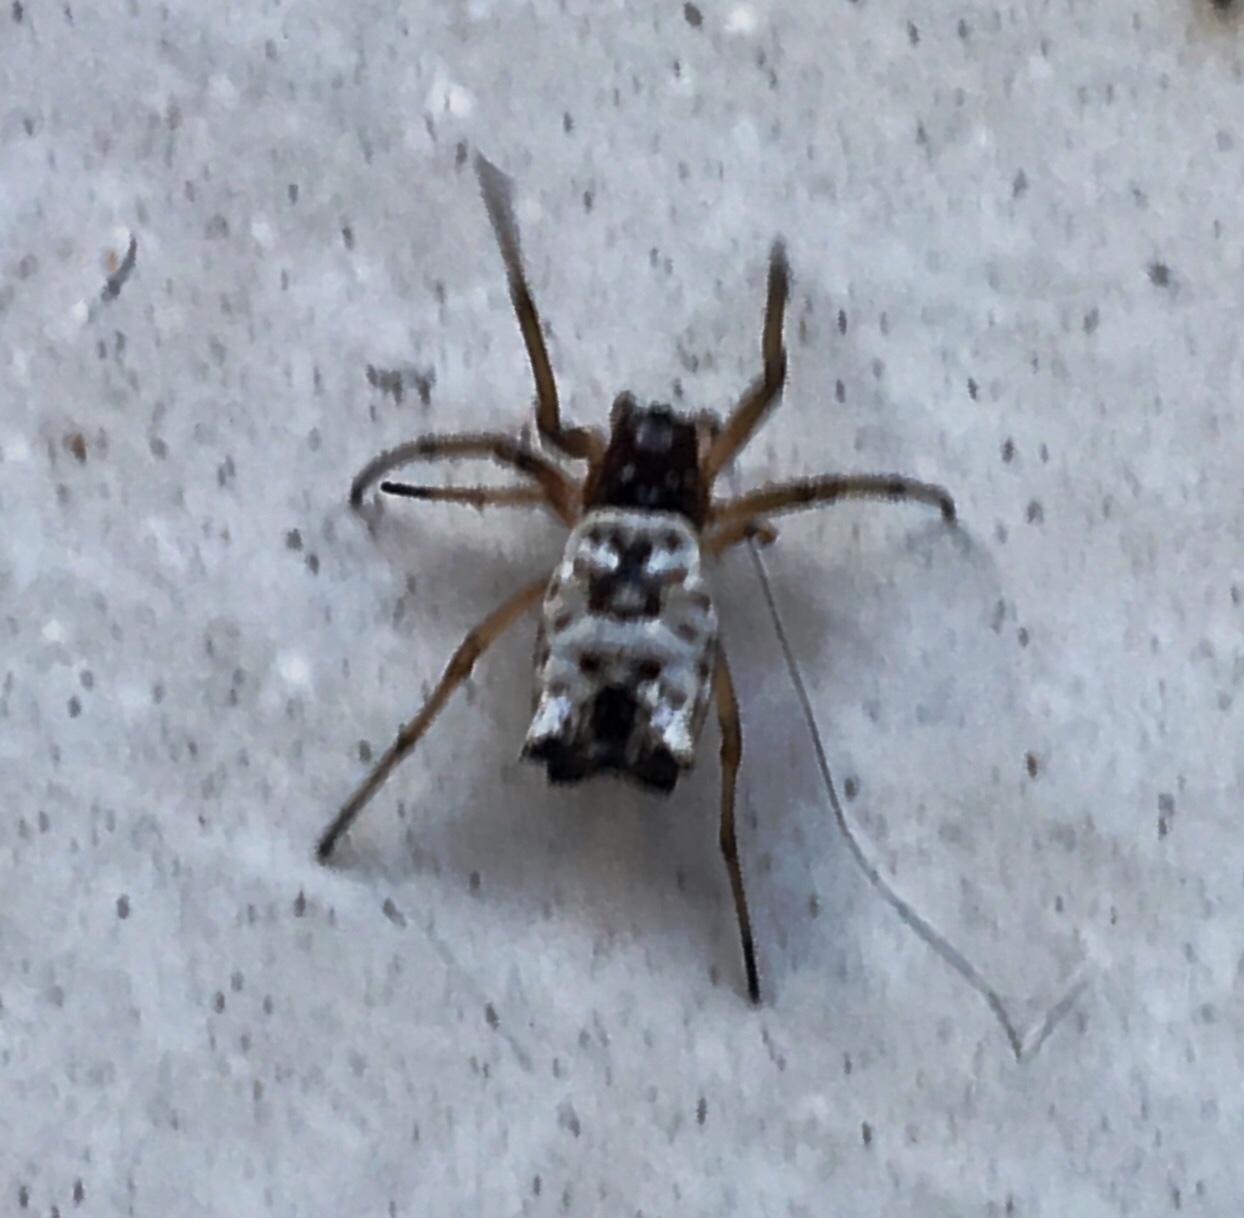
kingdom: Animalia
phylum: Arthropoda
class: Arachnida
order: Araneae
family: Araneidae
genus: Micrathena
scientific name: Micrathena mitrata
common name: Orb weavers
